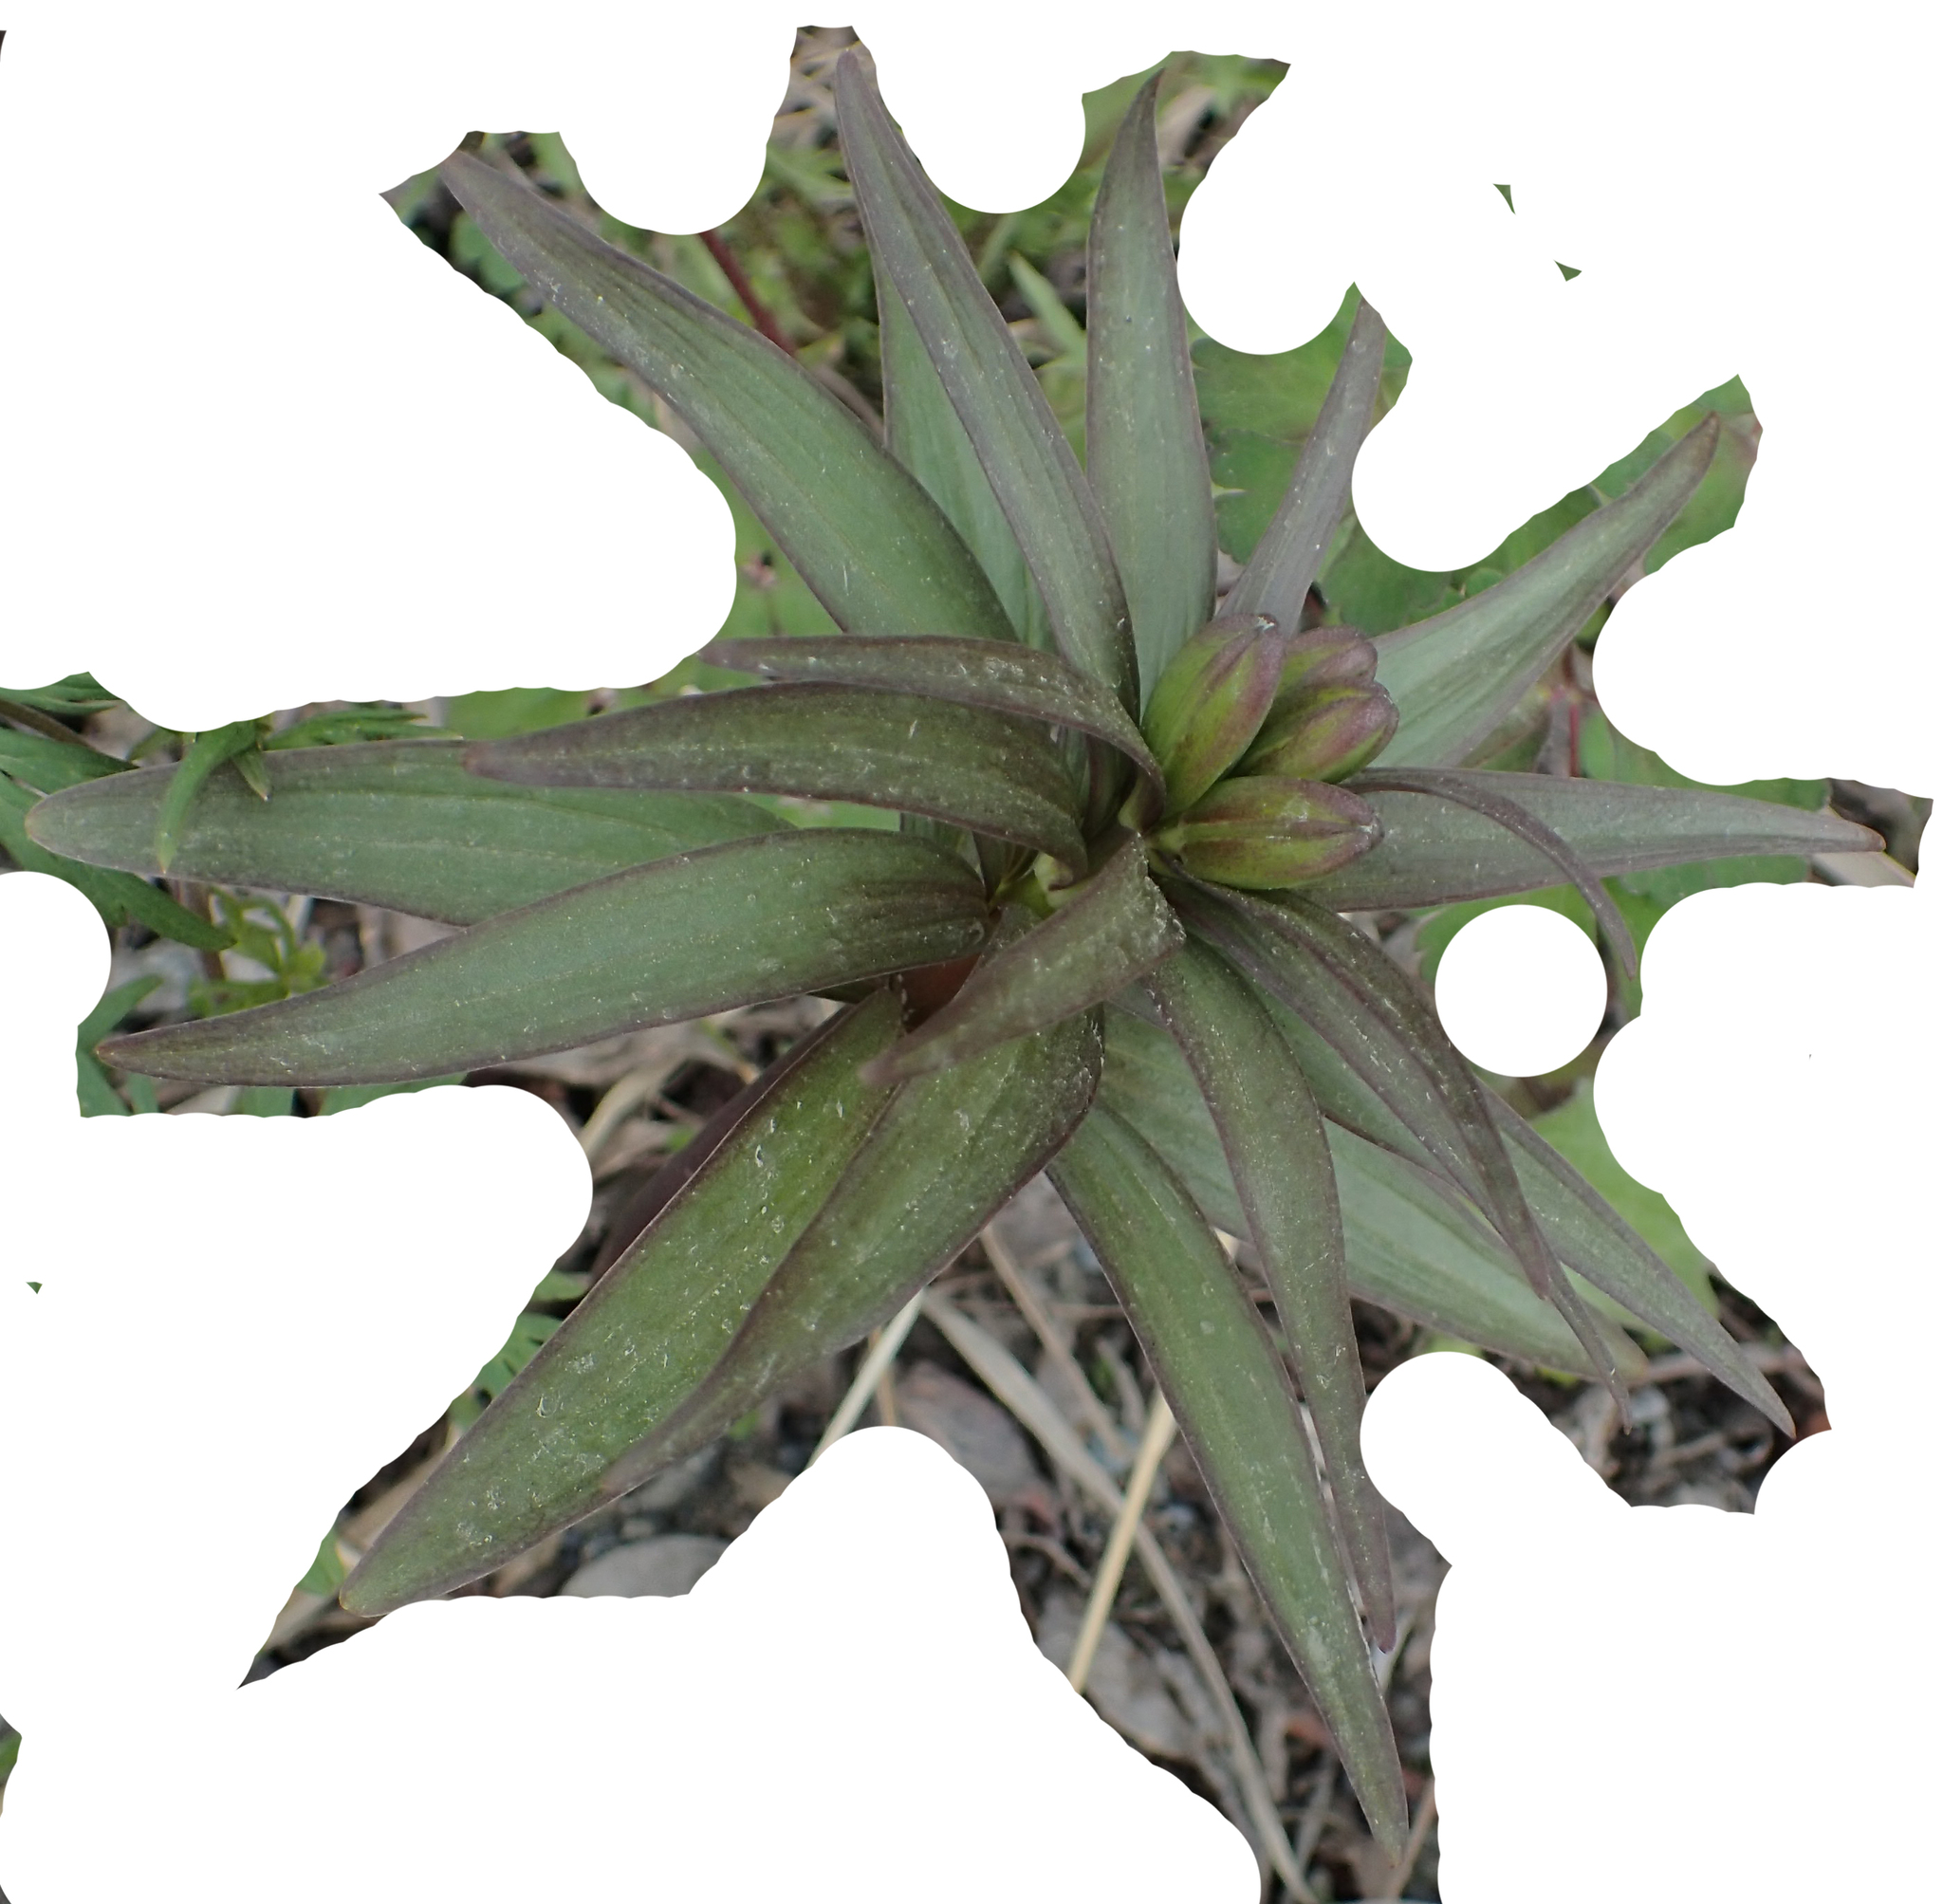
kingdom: Plantae
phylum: Tracheophyta
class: Liliopsida
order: Liliales
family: Liliaceae
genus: Fritillaria
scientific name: Fritillaria camschatcensis
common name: Kamchatka fritillary
